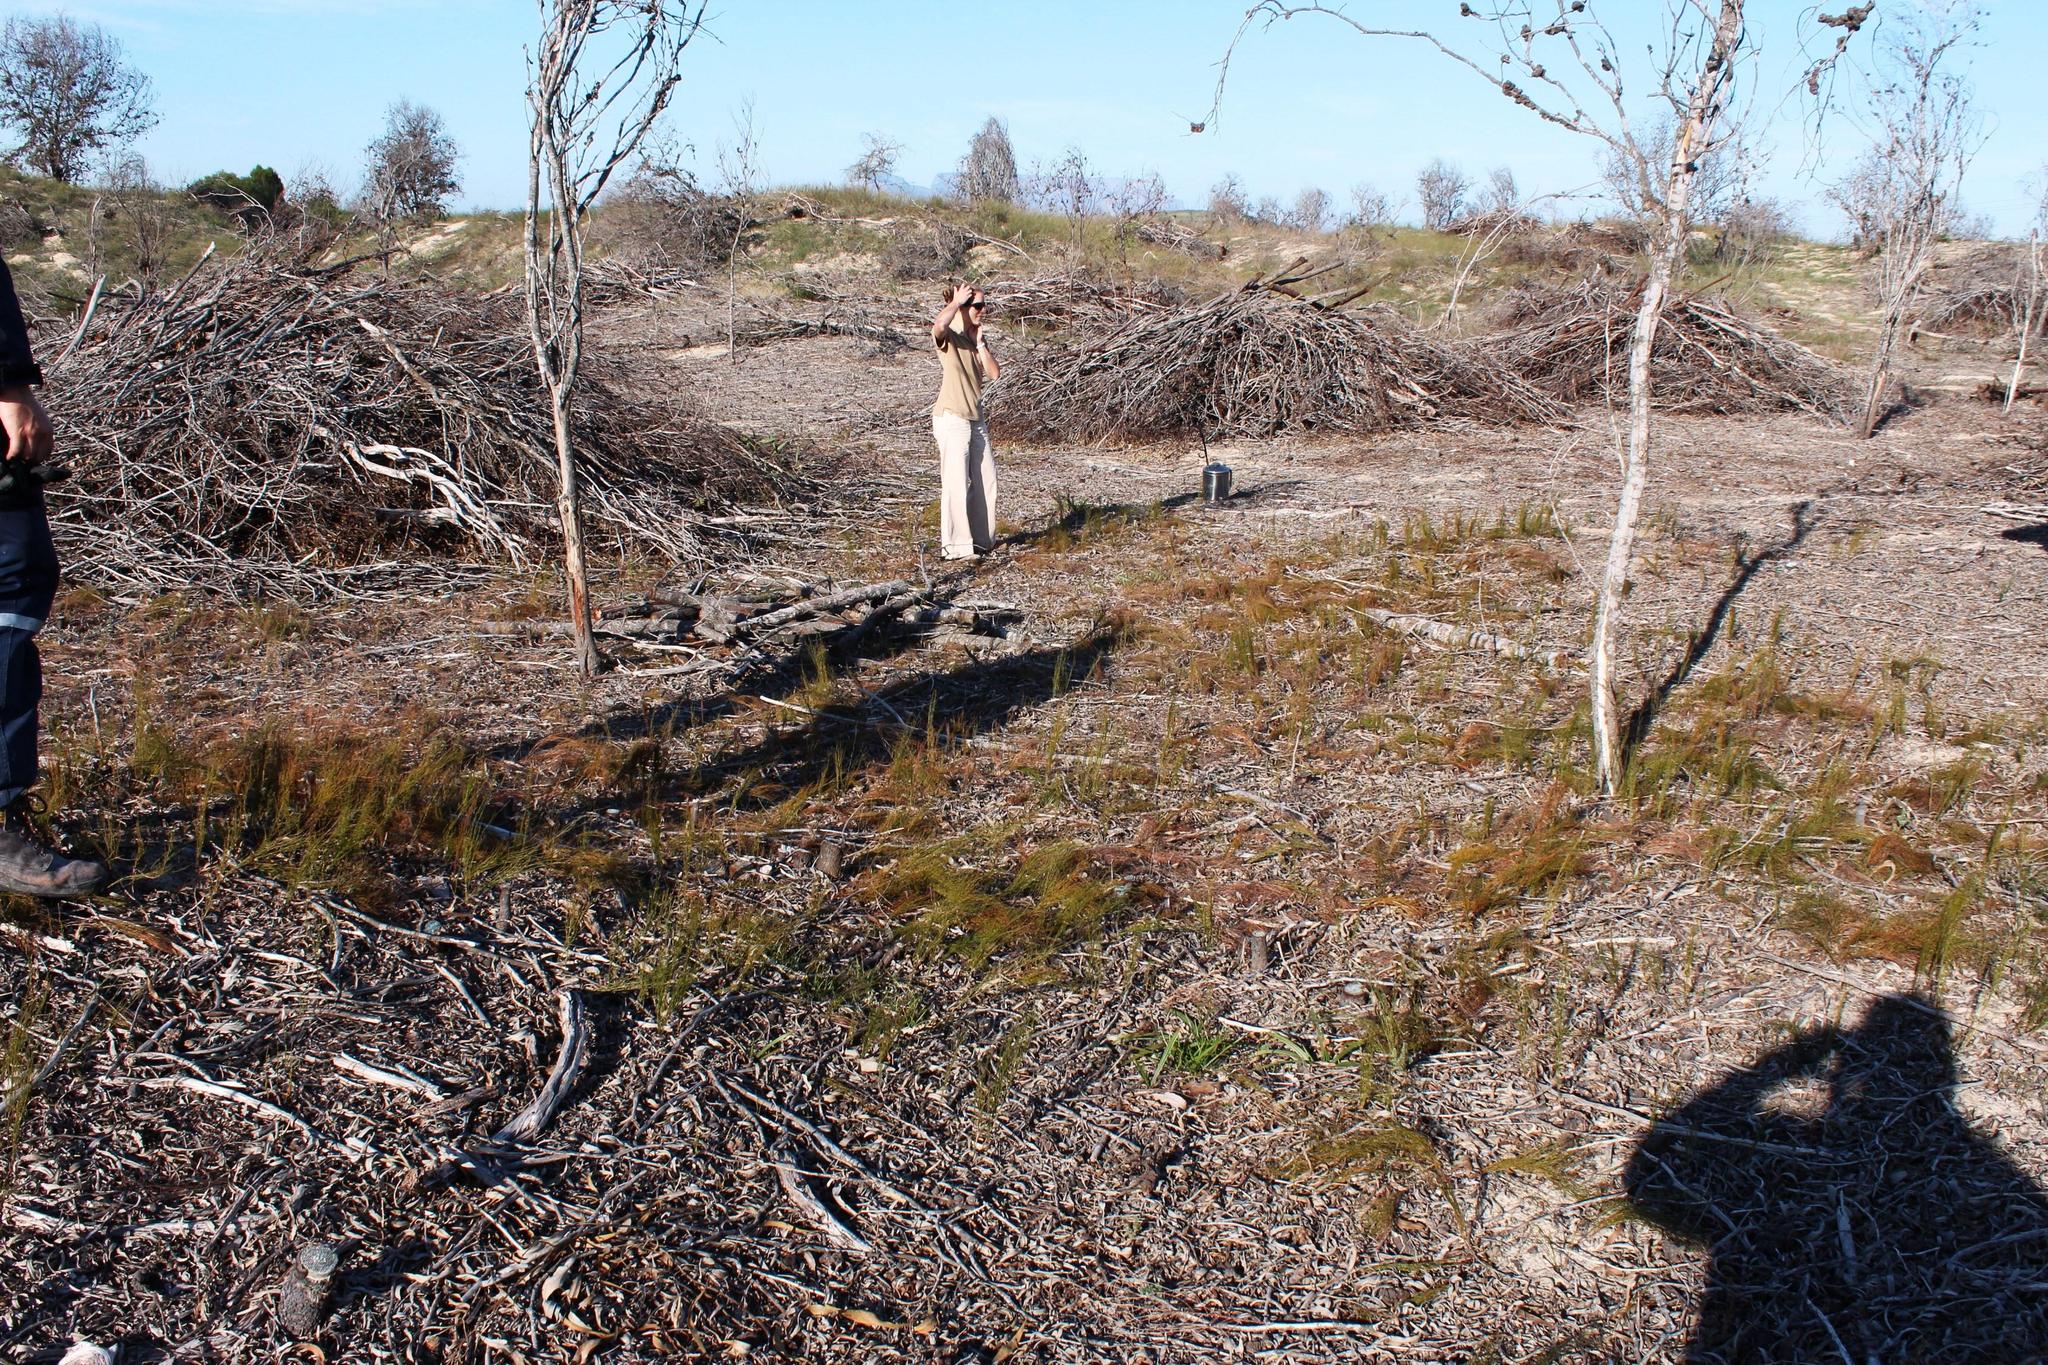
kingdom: Plantae
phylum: Tracheophyta
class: Liliopsida
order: Poales
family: Restionaceae
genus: Restio
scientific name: Restio eleocharis
